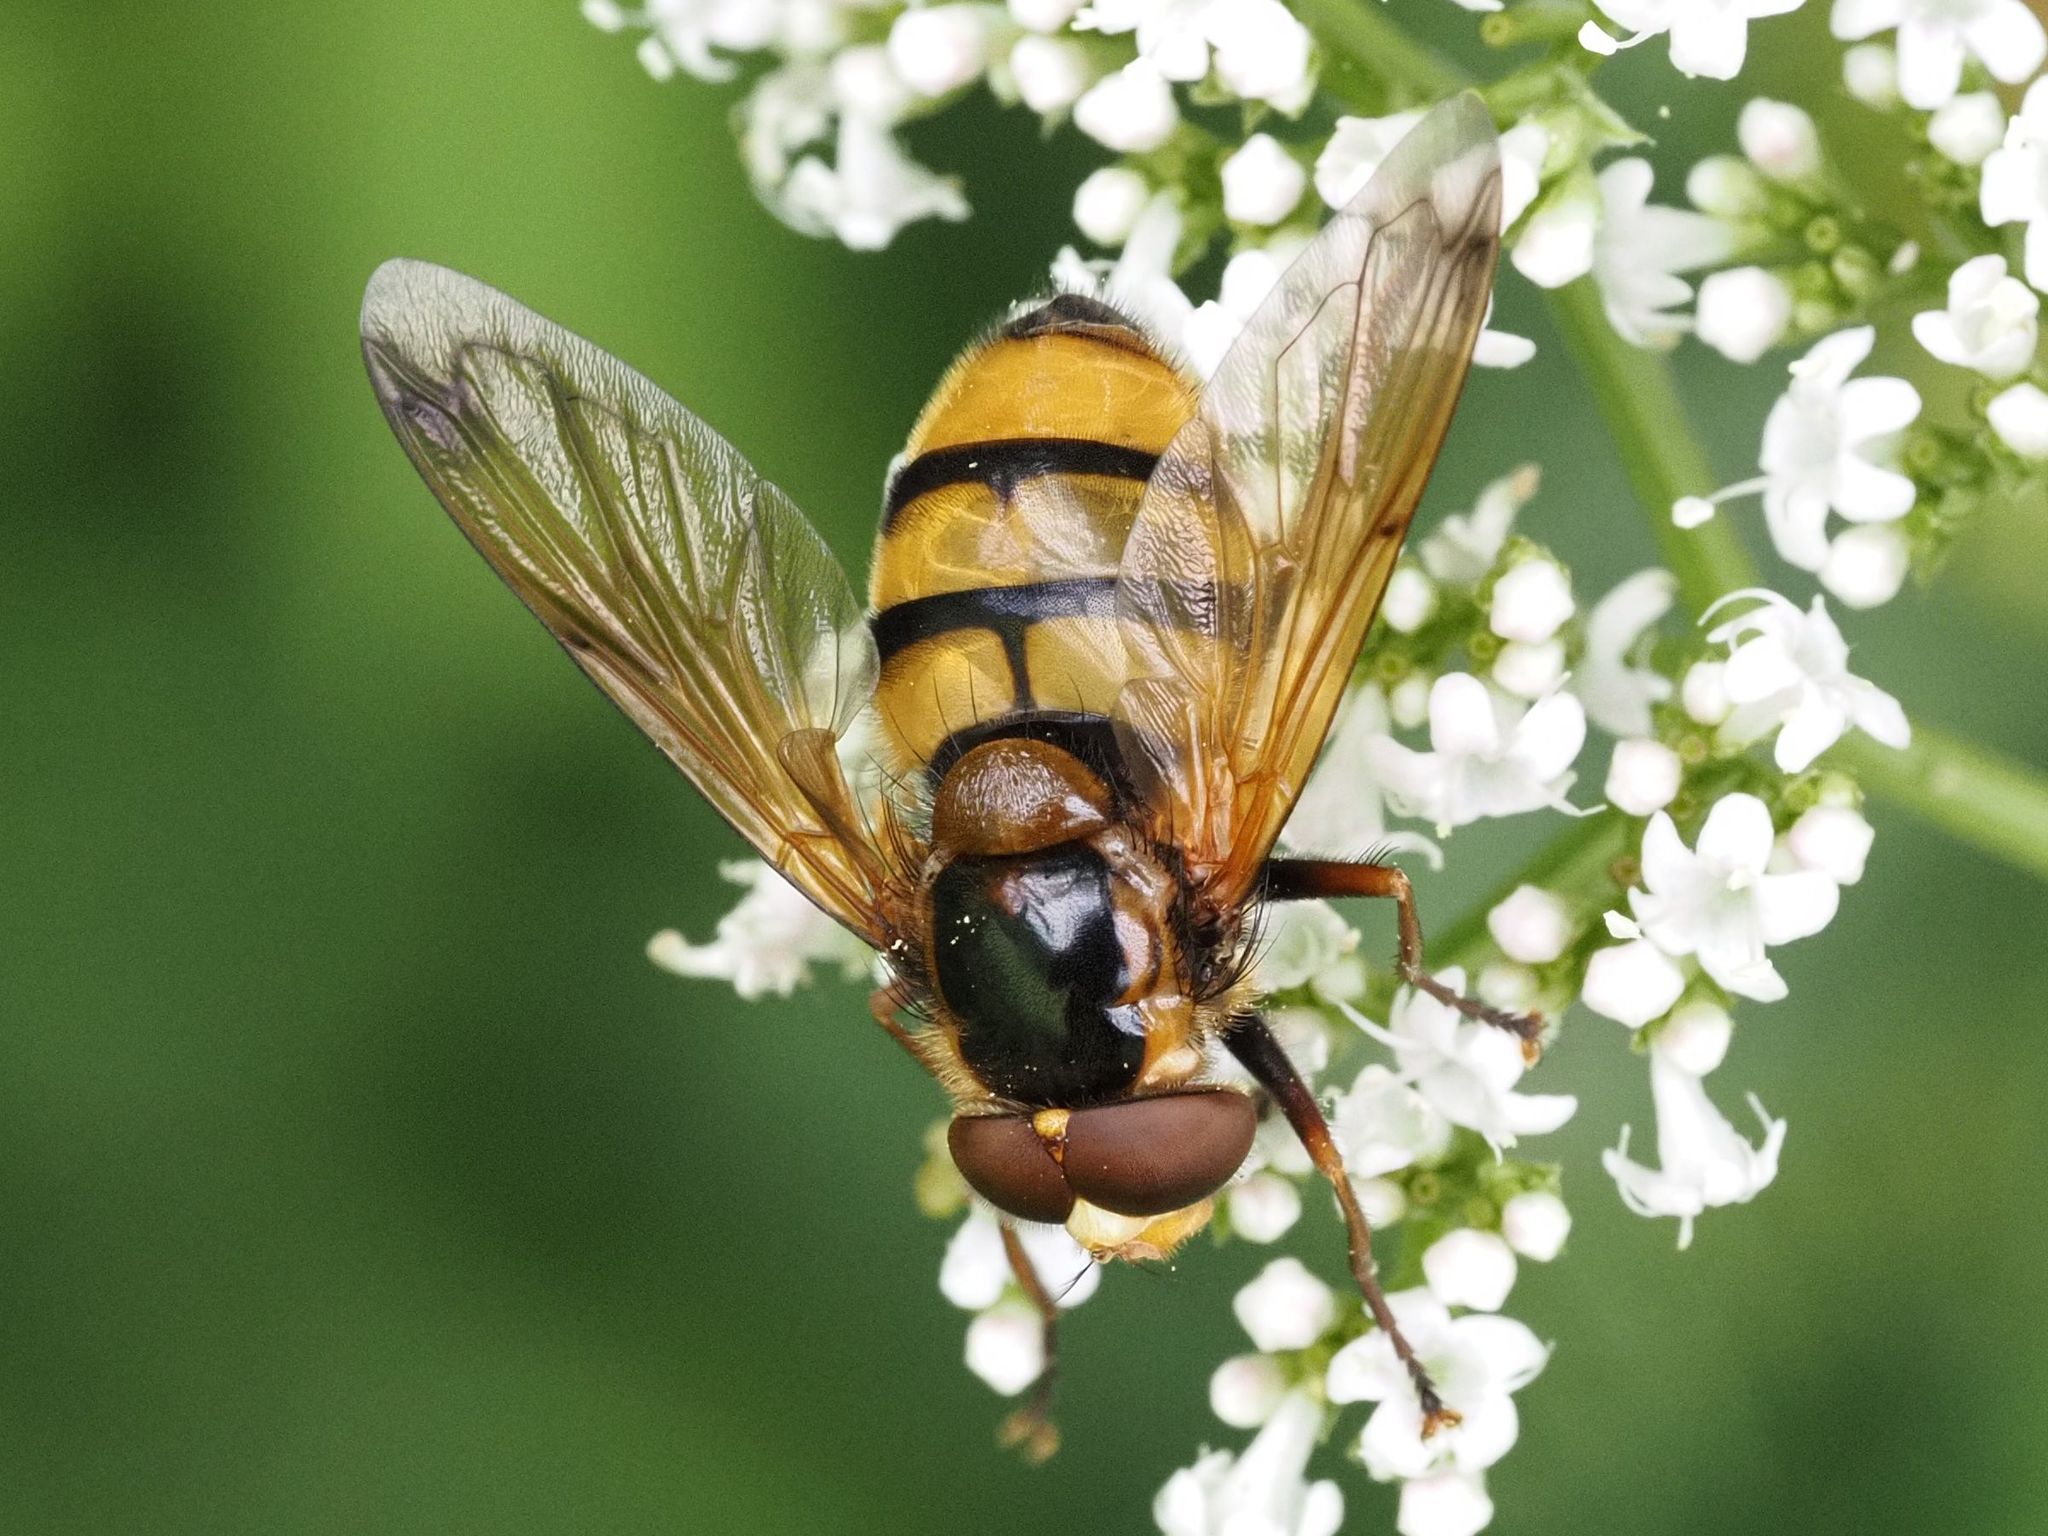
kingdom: Animalia
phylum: Arthropoda
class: Insecta
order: Diptera
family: Syrphidae
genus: Volucella
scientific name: Volucella inanis
